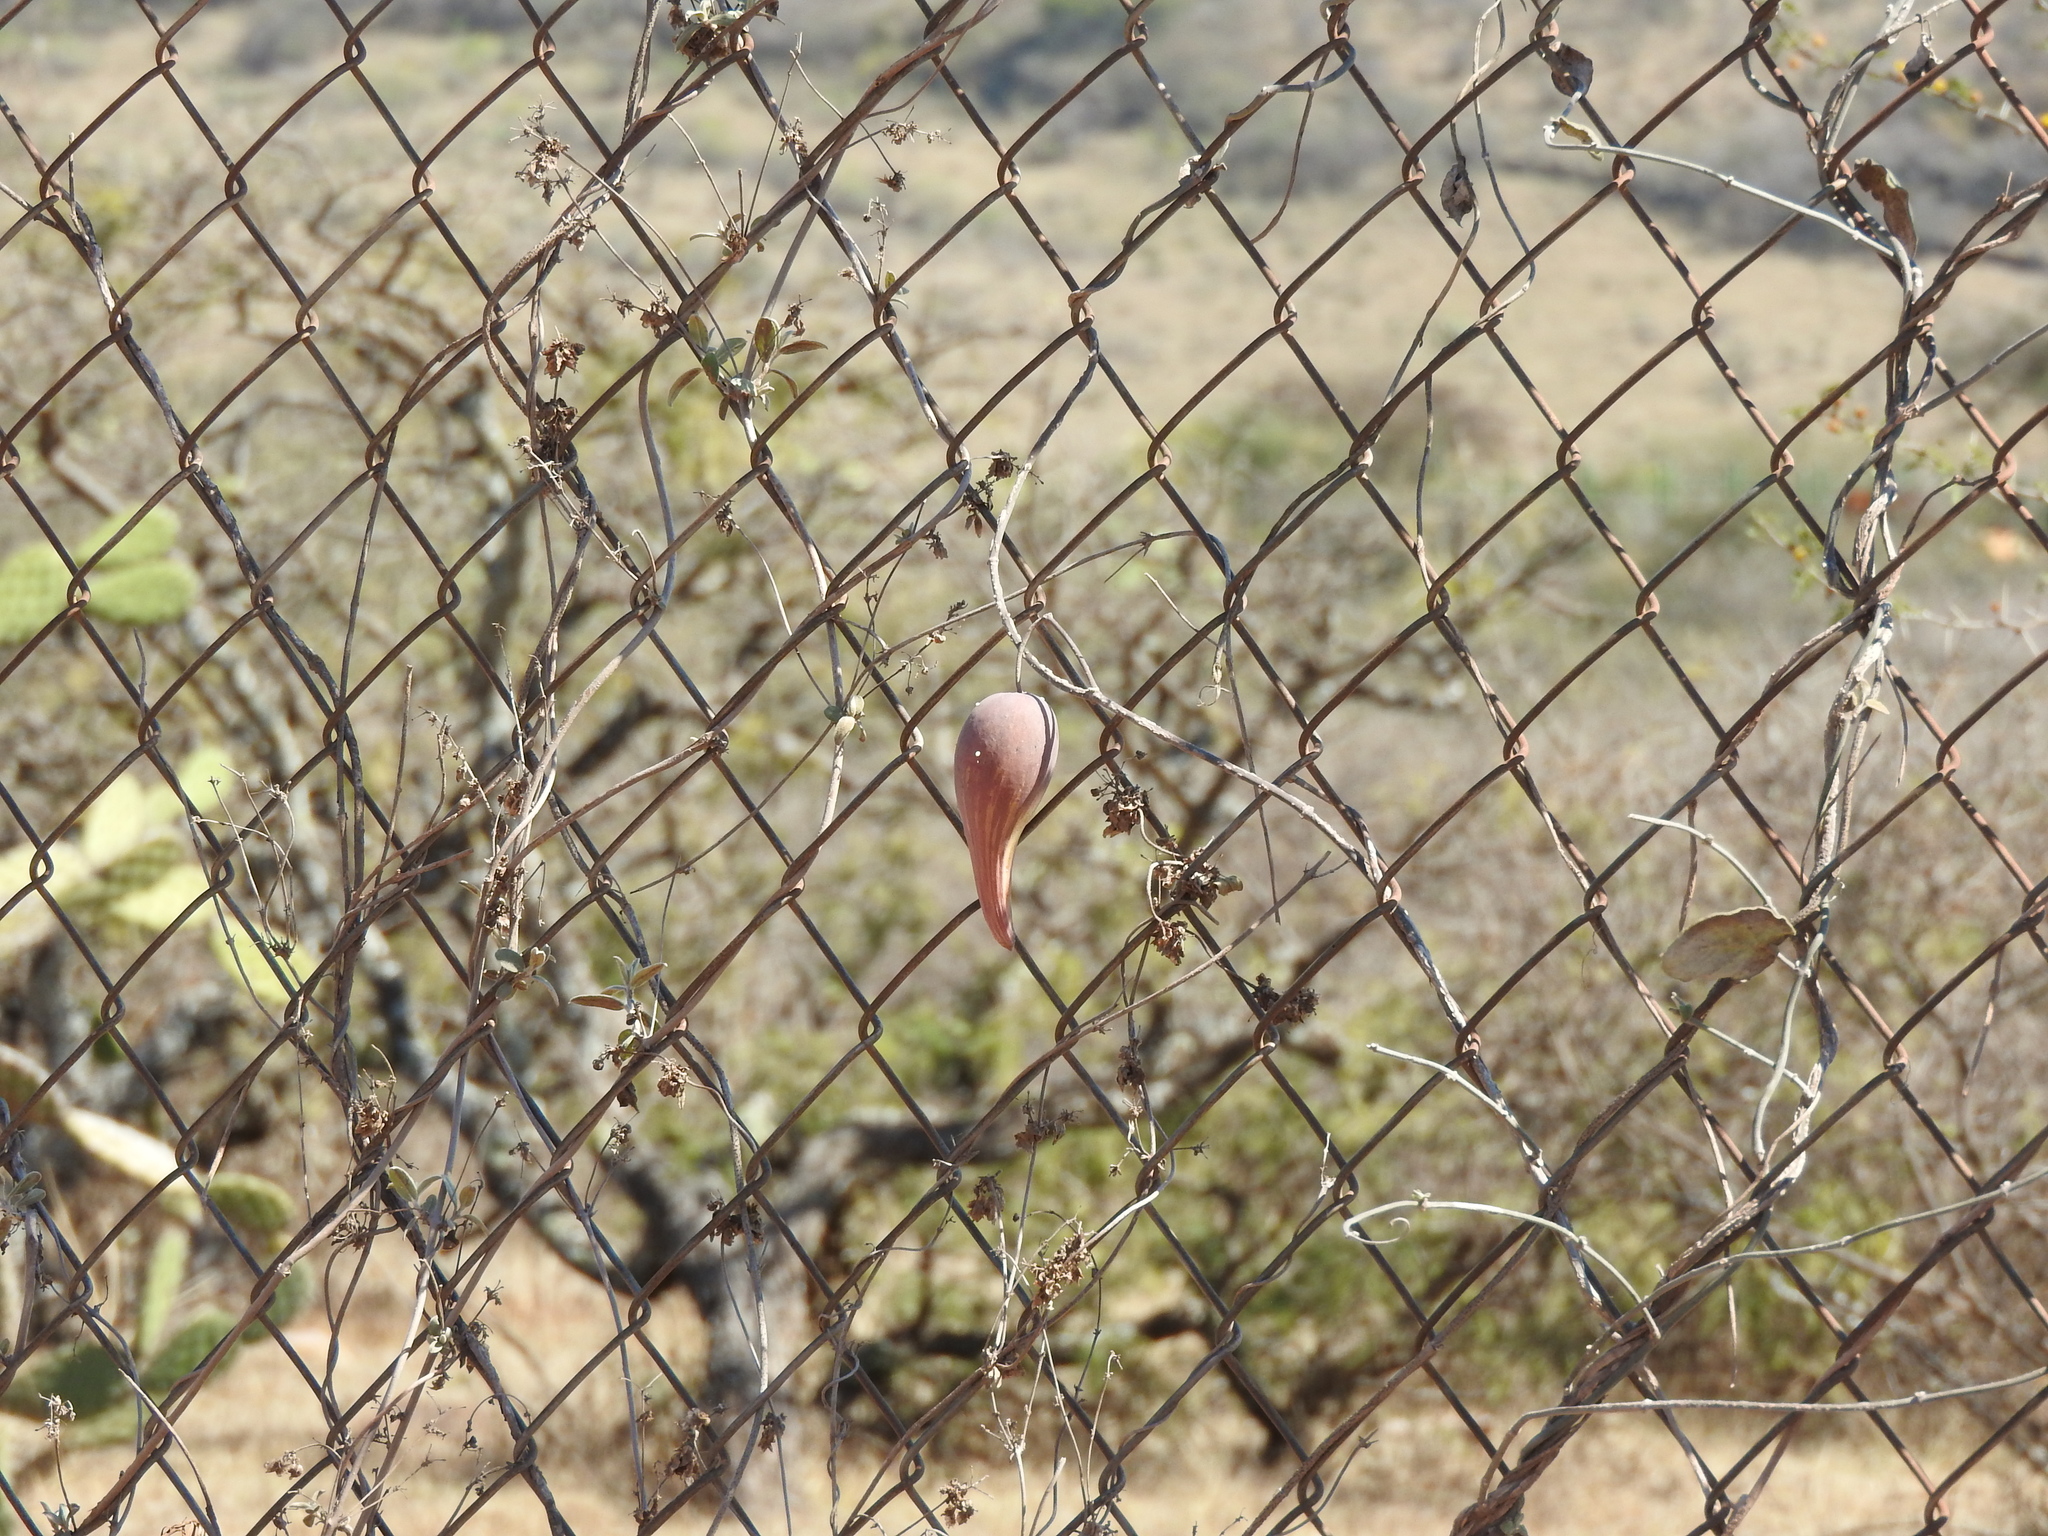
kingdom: Plantae
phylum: Tracheophyta
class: Magnoliopsida
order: Gentianales
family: Apocynaceae
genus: Funastrum
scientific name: Funastrum pannosum
